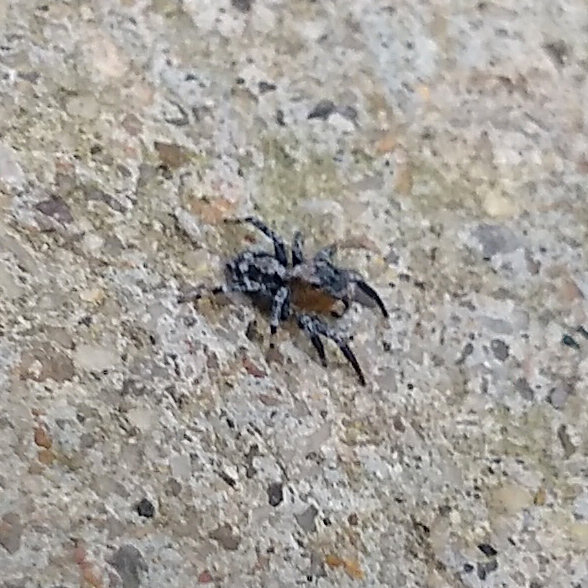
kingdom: Animalia
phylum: Arthropoda
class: Arachnida
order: Araneae
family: Salticidae
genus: Naphrys
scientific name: Naphrys pulex
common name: Flea jumping spider
